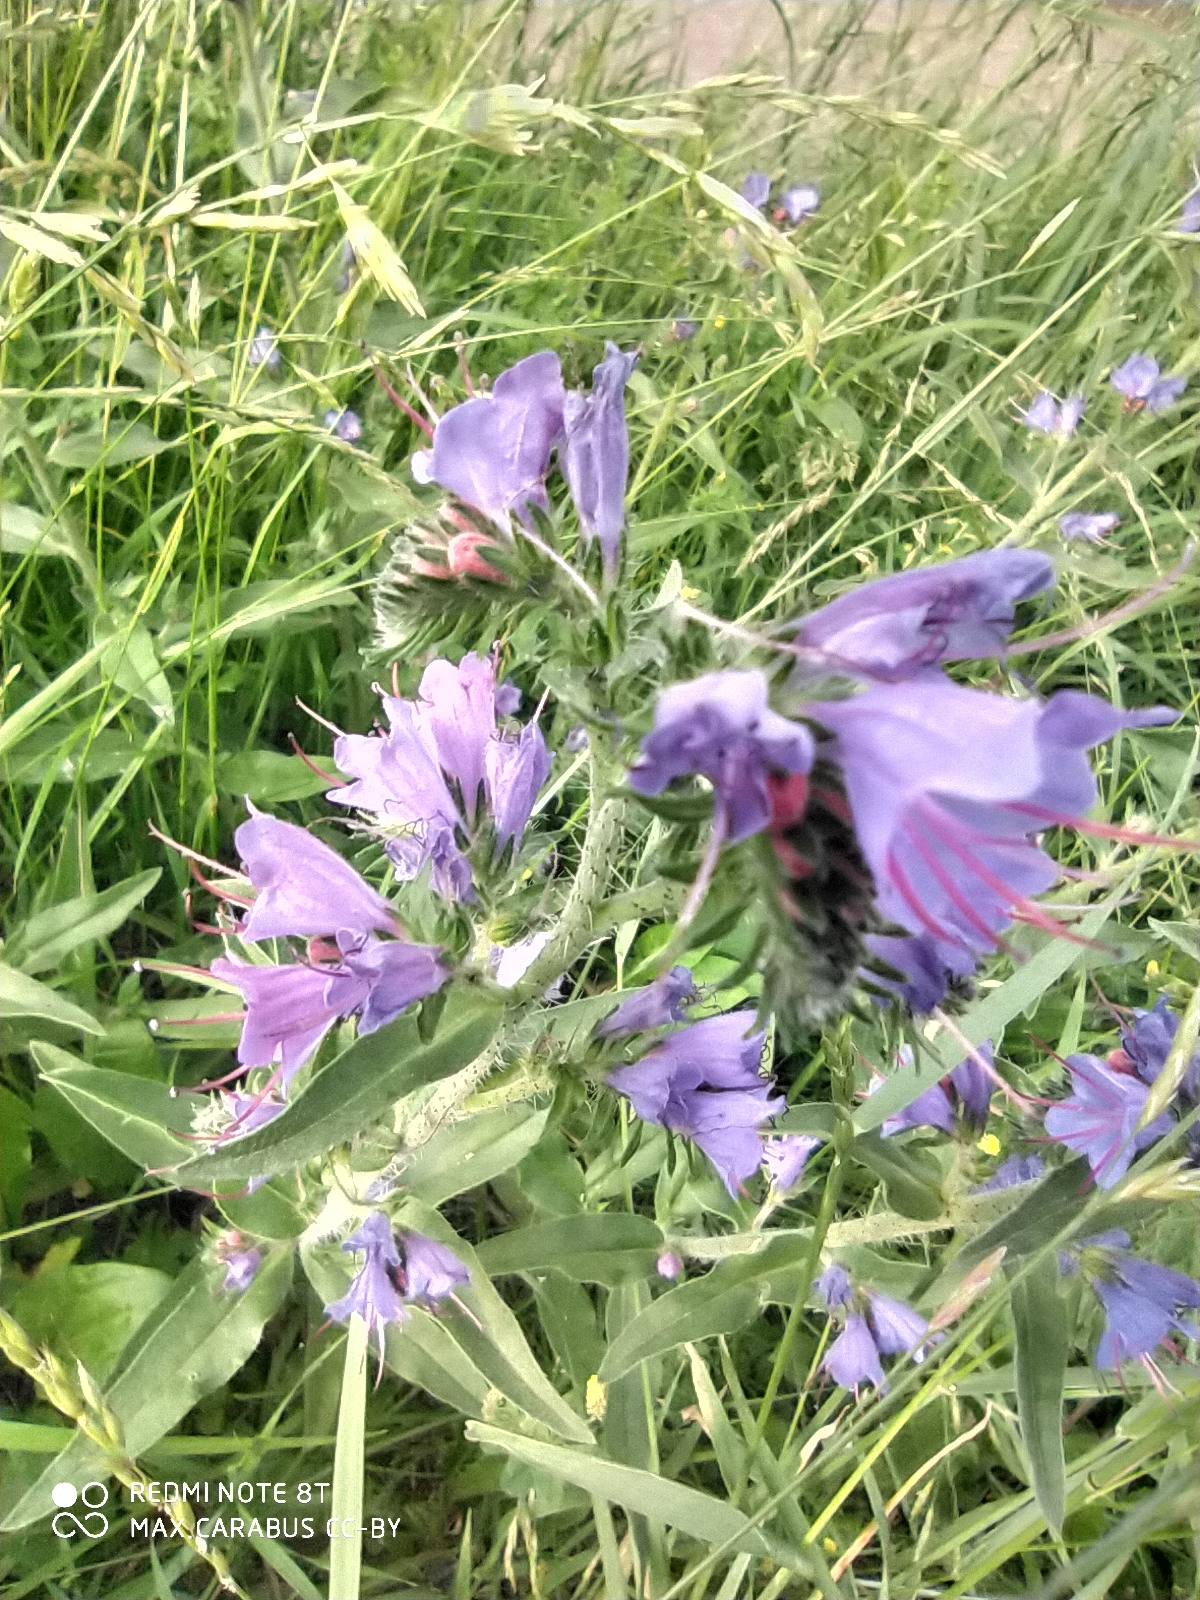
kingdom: Plantae
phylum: Tracheophyta
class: Magnoliopsida
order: Boraginales
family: Boraginaceae
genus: Echium
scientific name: Echium vulgare
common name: Common viper's bugloss
